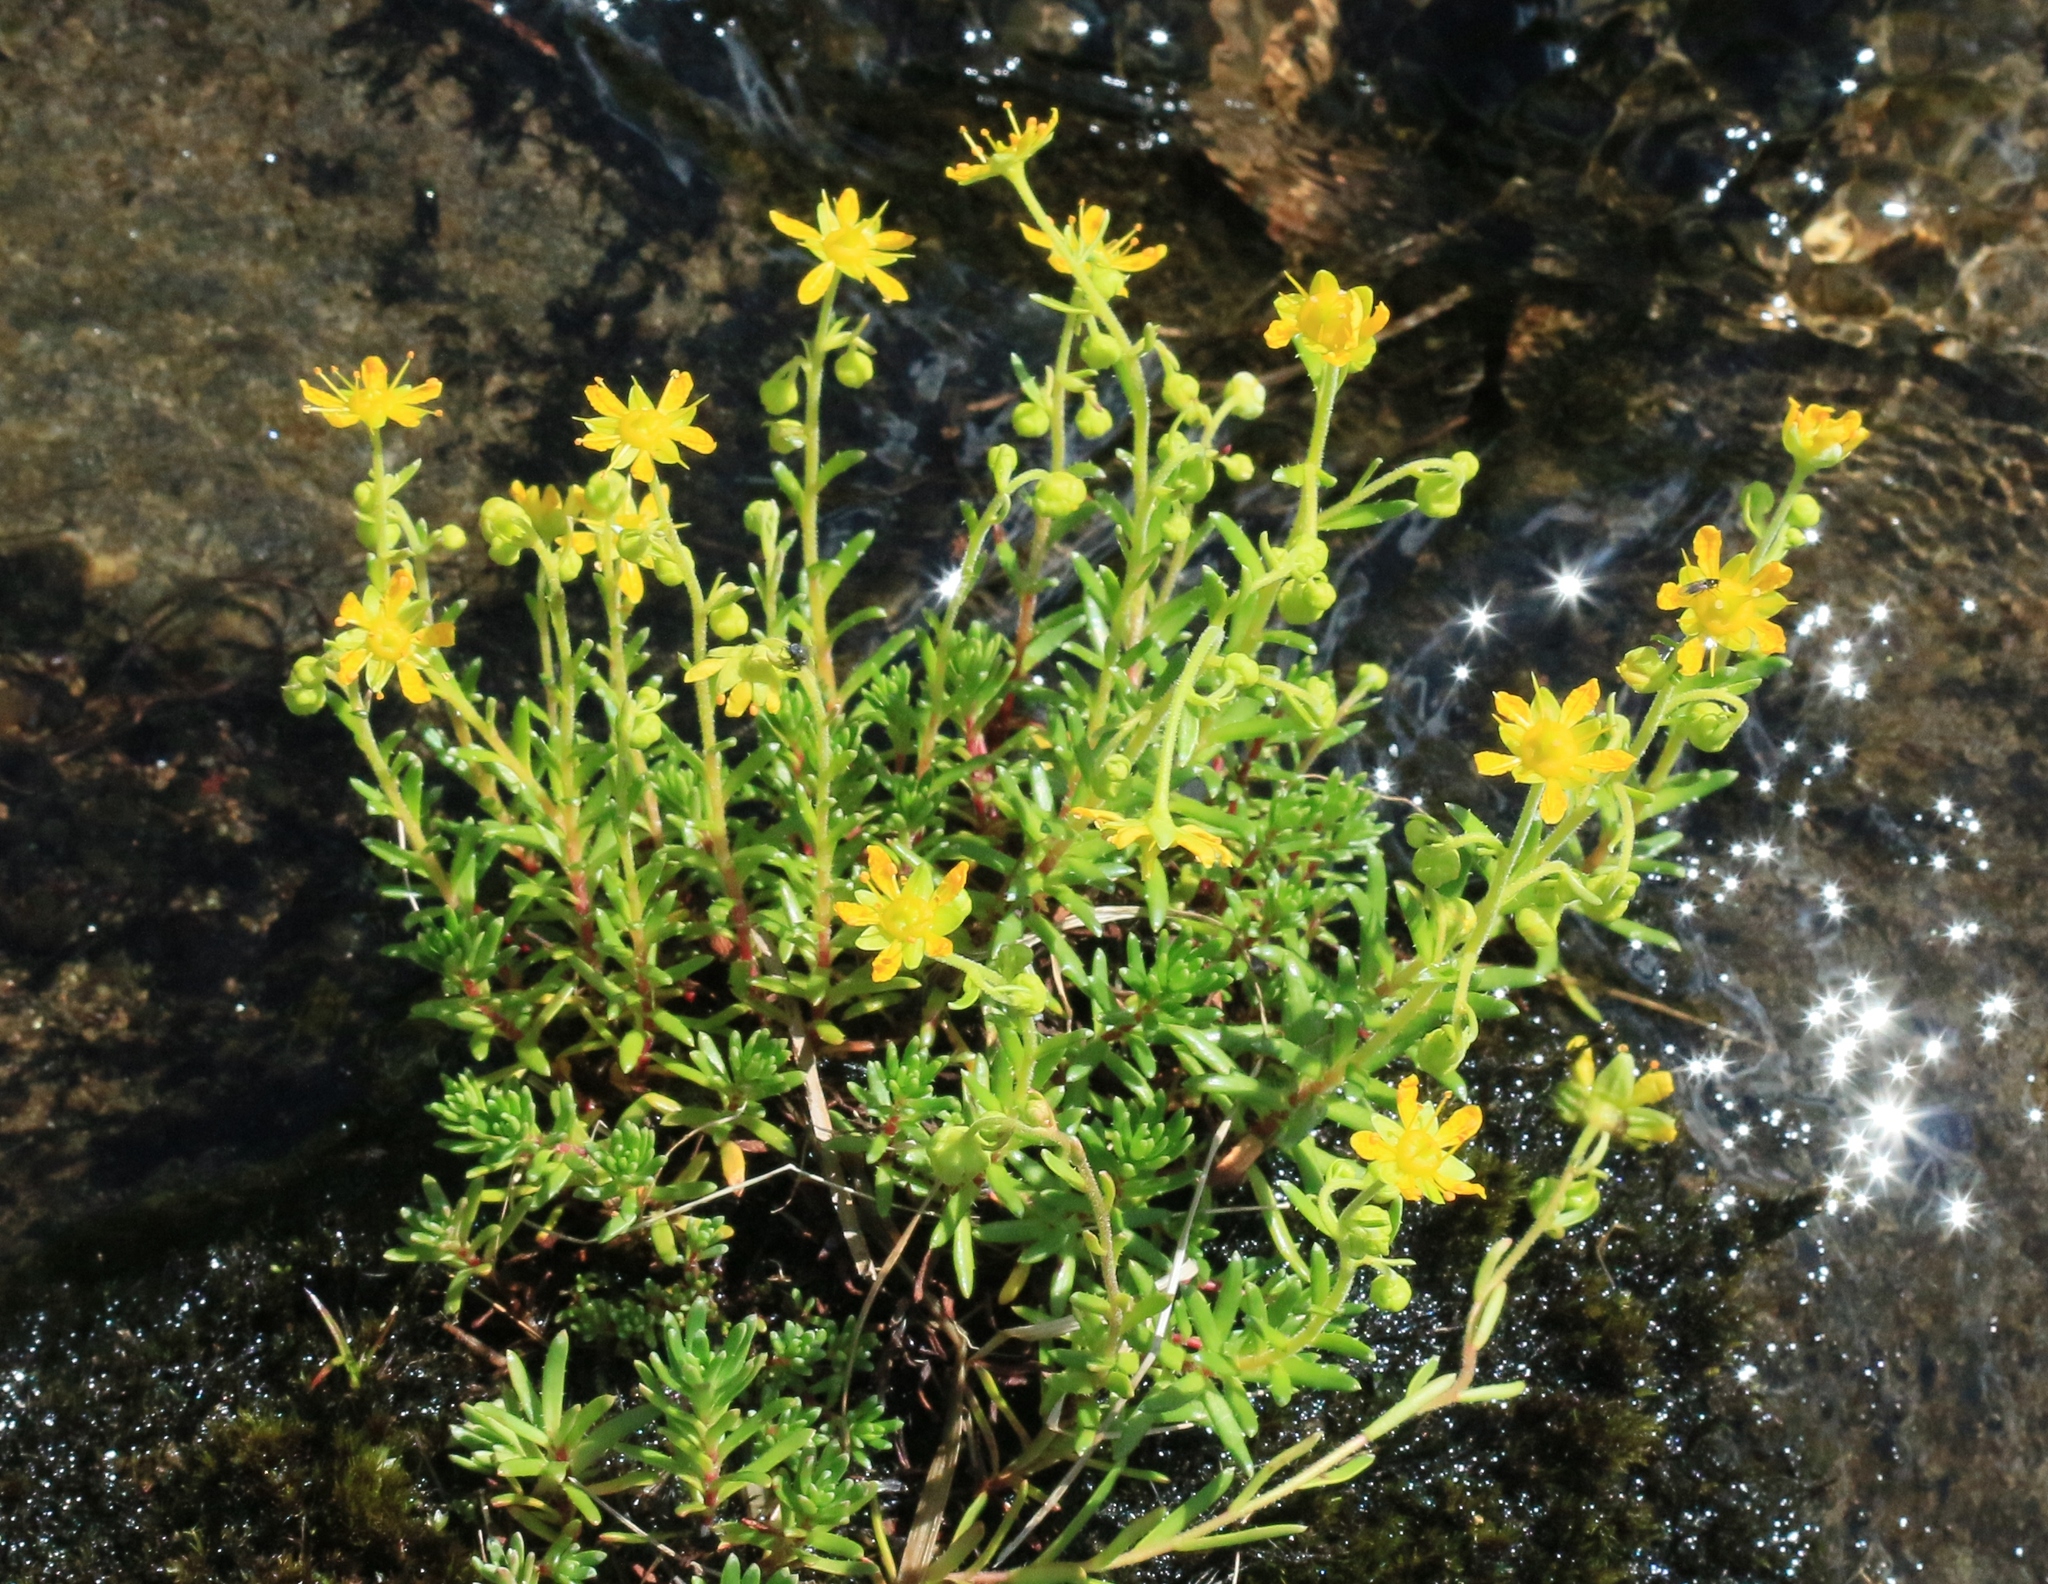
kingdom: Plantae
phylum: Tracheophyta
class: Magnoliopsida
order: Saxifragales
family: Saxifragaceae
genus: Saxifraga
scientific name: Saxifraga aizoides
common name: Yellow mountain saxifrage
